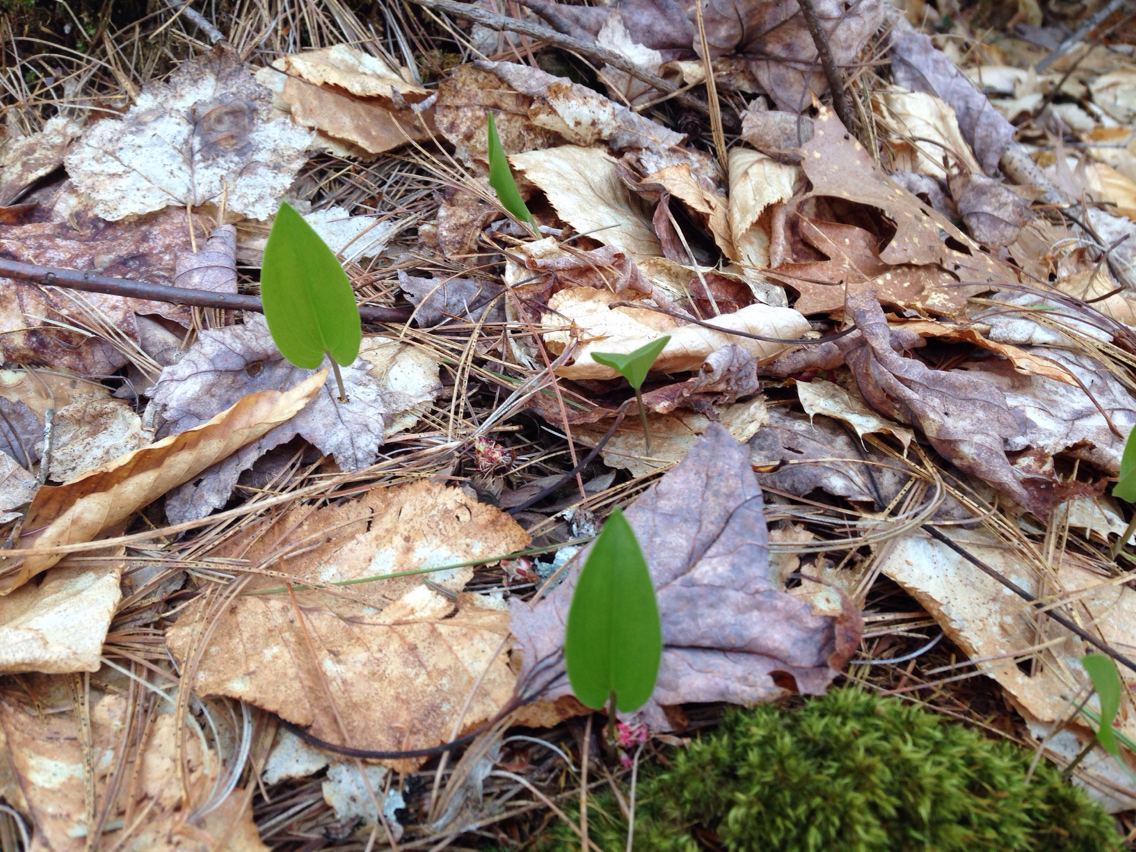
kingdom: Plantae
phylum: Tracheophyta
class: Liliopsida
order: Asparagales
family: Asparagaceae
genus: Maianthemum
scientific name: Maianthemum canadense
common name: False lily-of-the-valley
